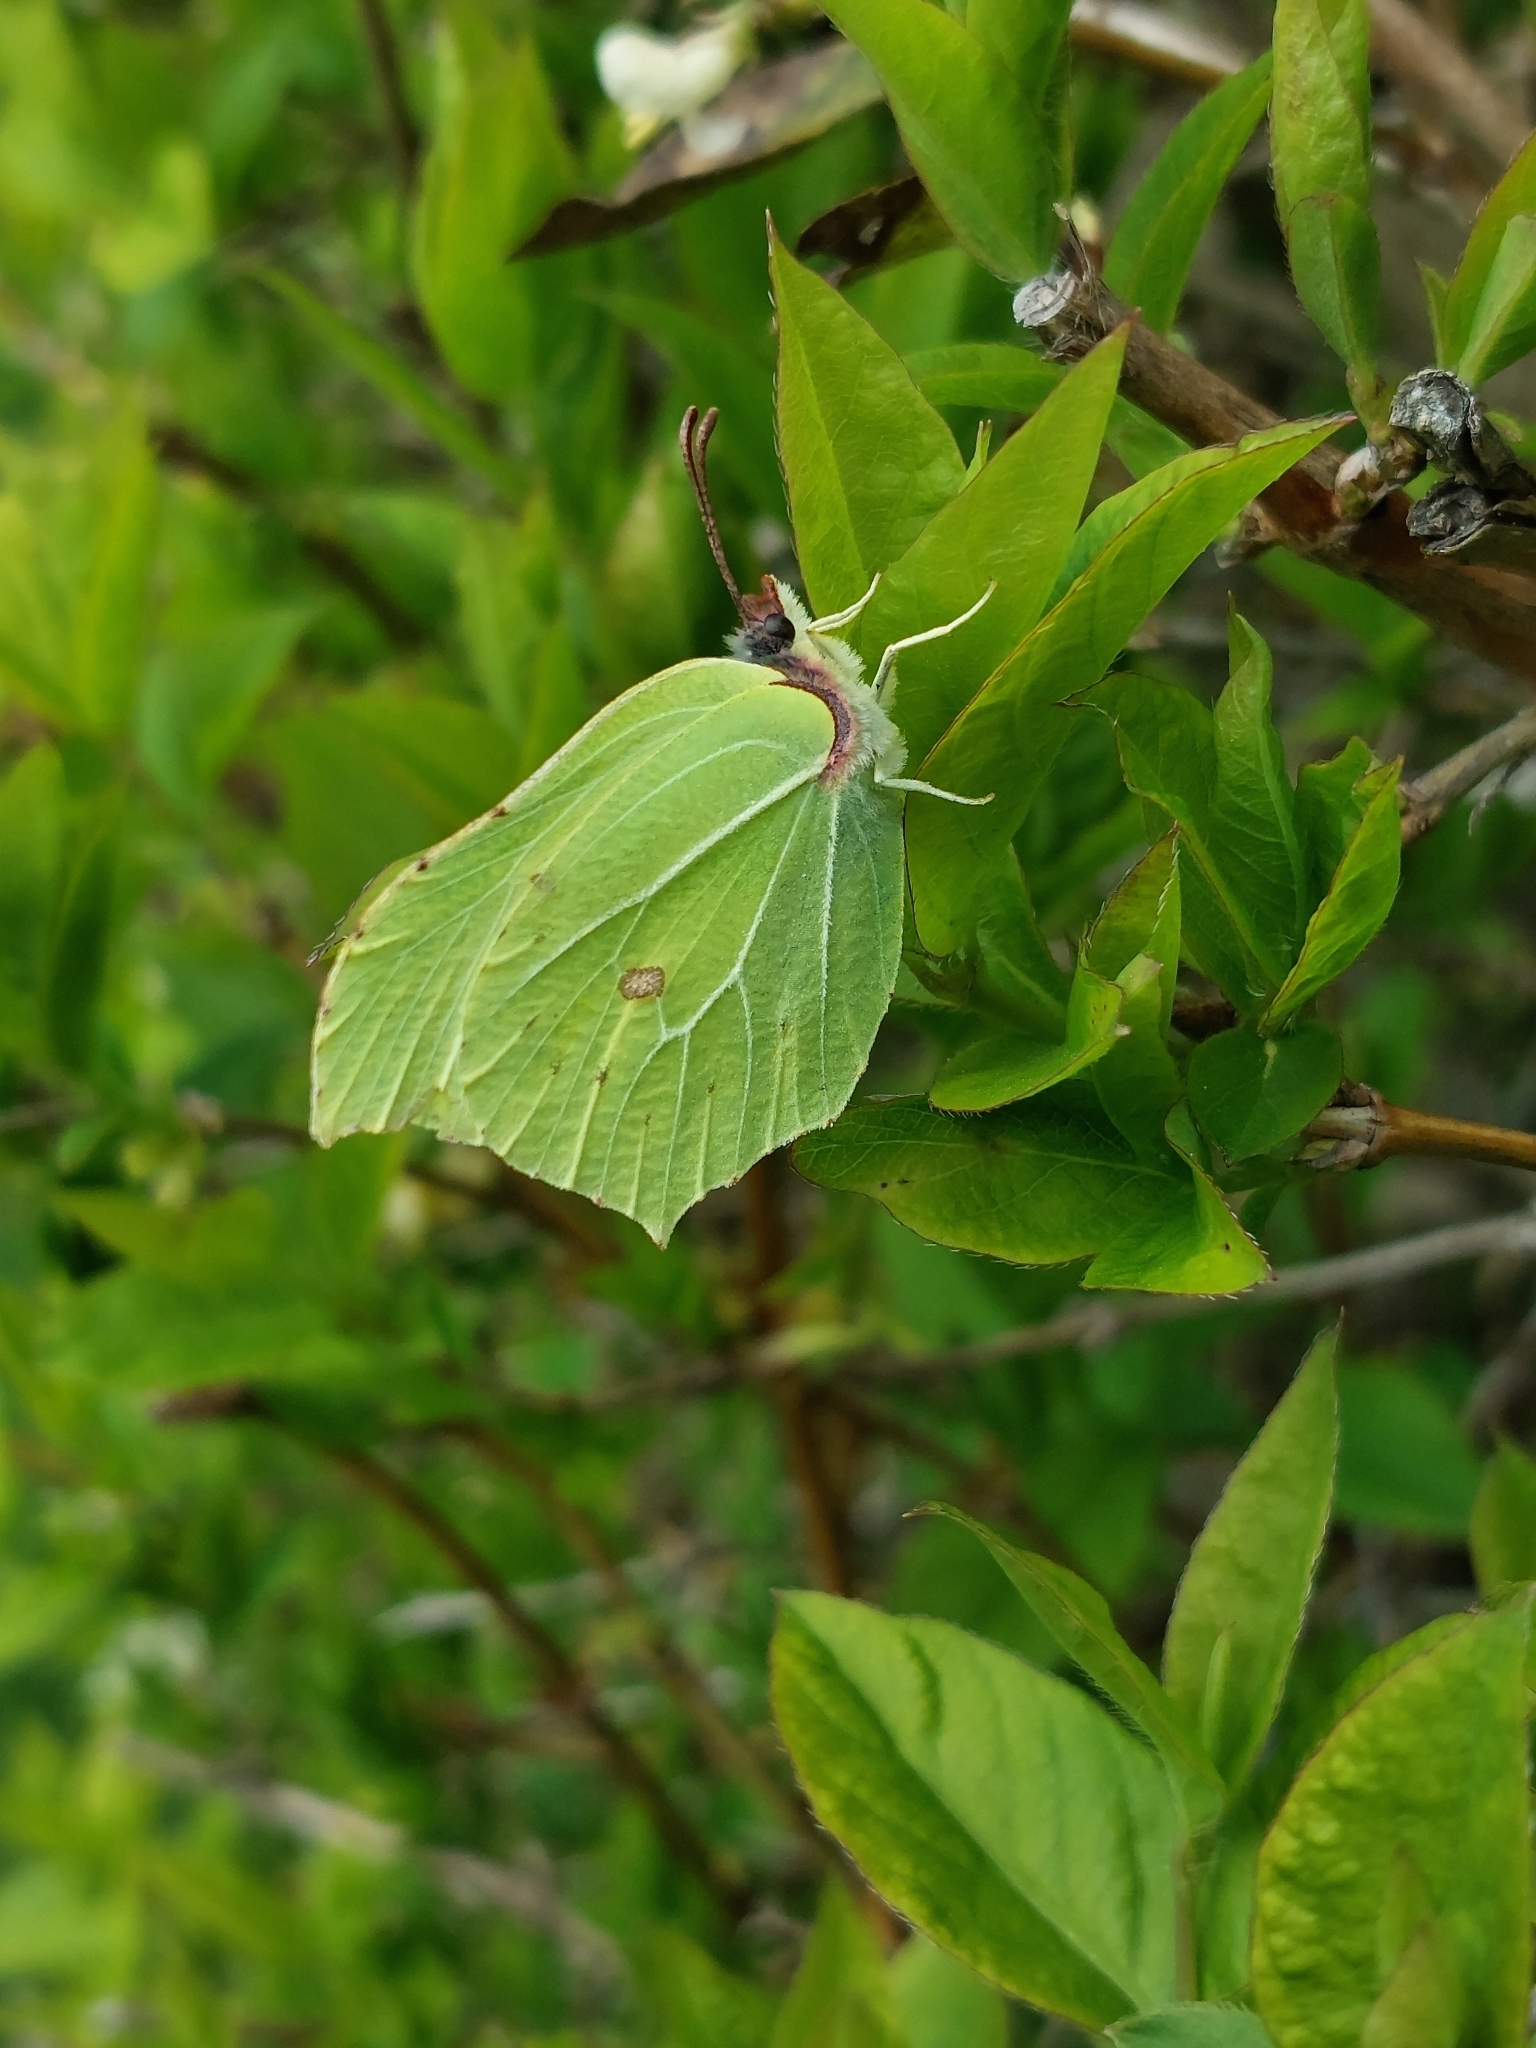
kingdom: Animalia
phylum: Arthropoda
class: Insecta
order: Lepidoptera
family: Pieridae
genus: Gonepteryx
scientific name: Gonepteryx rhamni
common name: Brimstone
